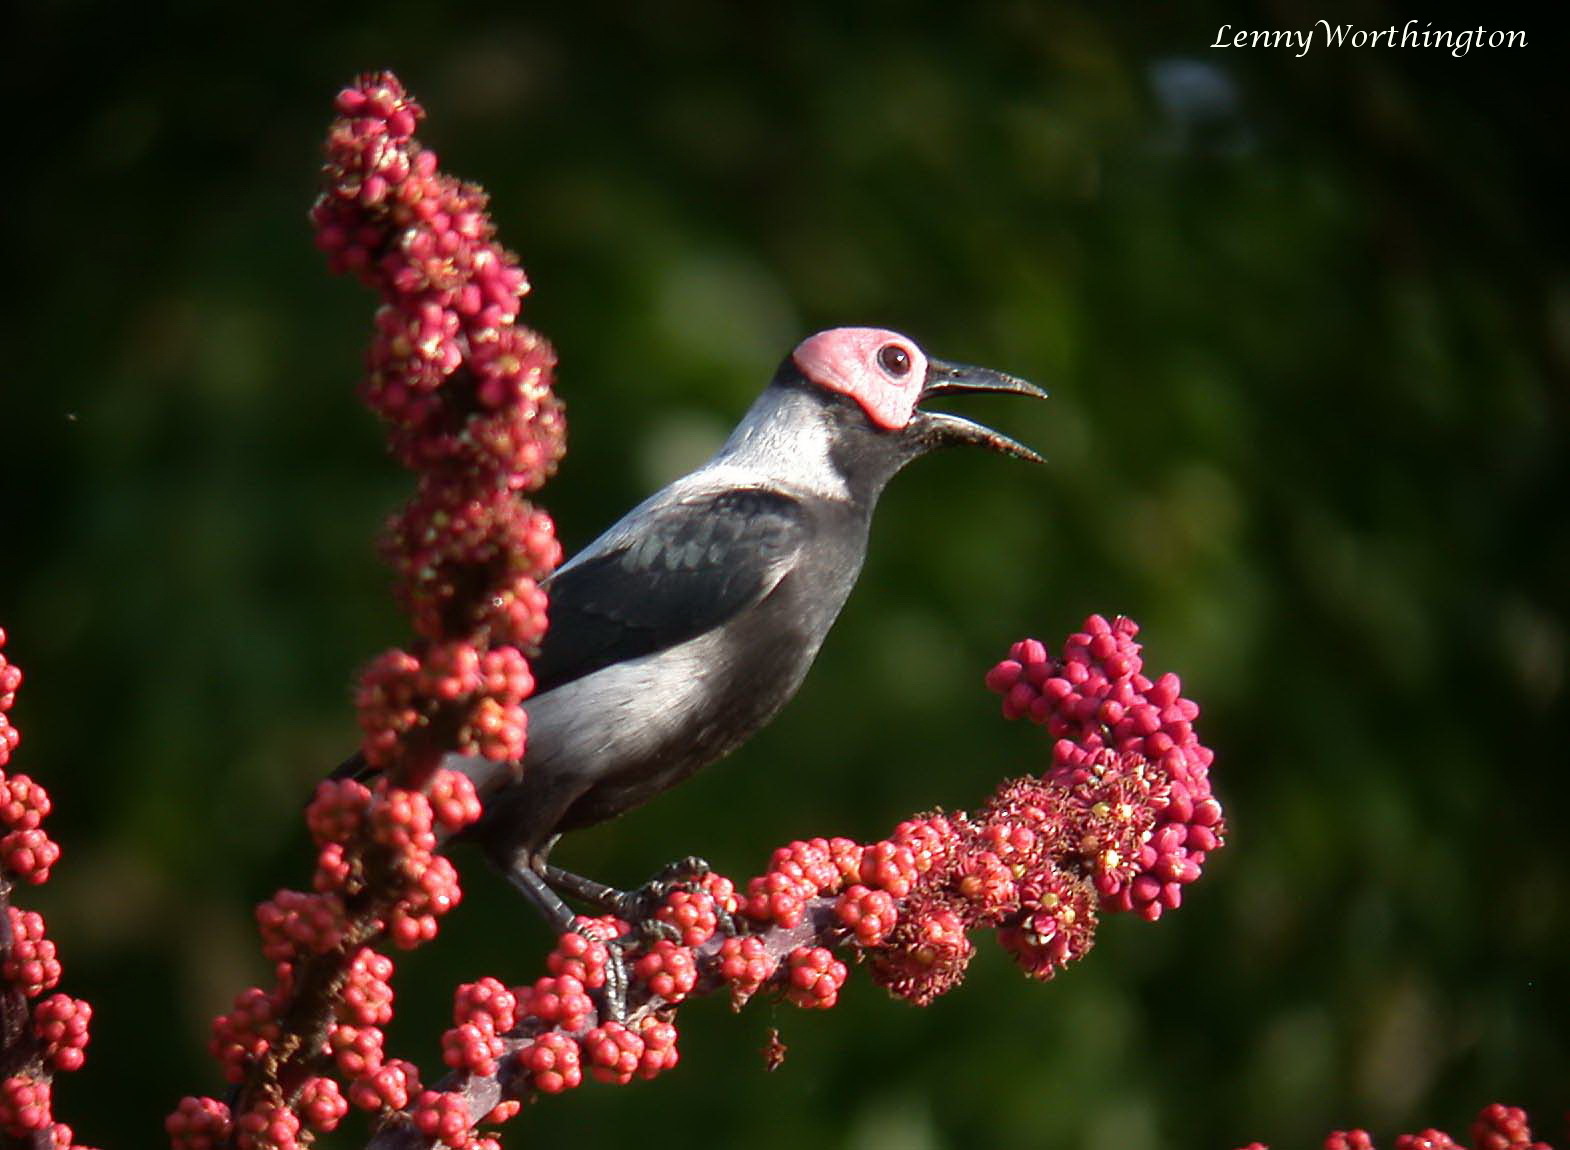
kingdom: Animalia
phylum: Chordata
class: Aves
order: Passeriformes
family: Sturnidae
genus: Sarcops
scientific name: Sarcops calvus
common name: Coleto
